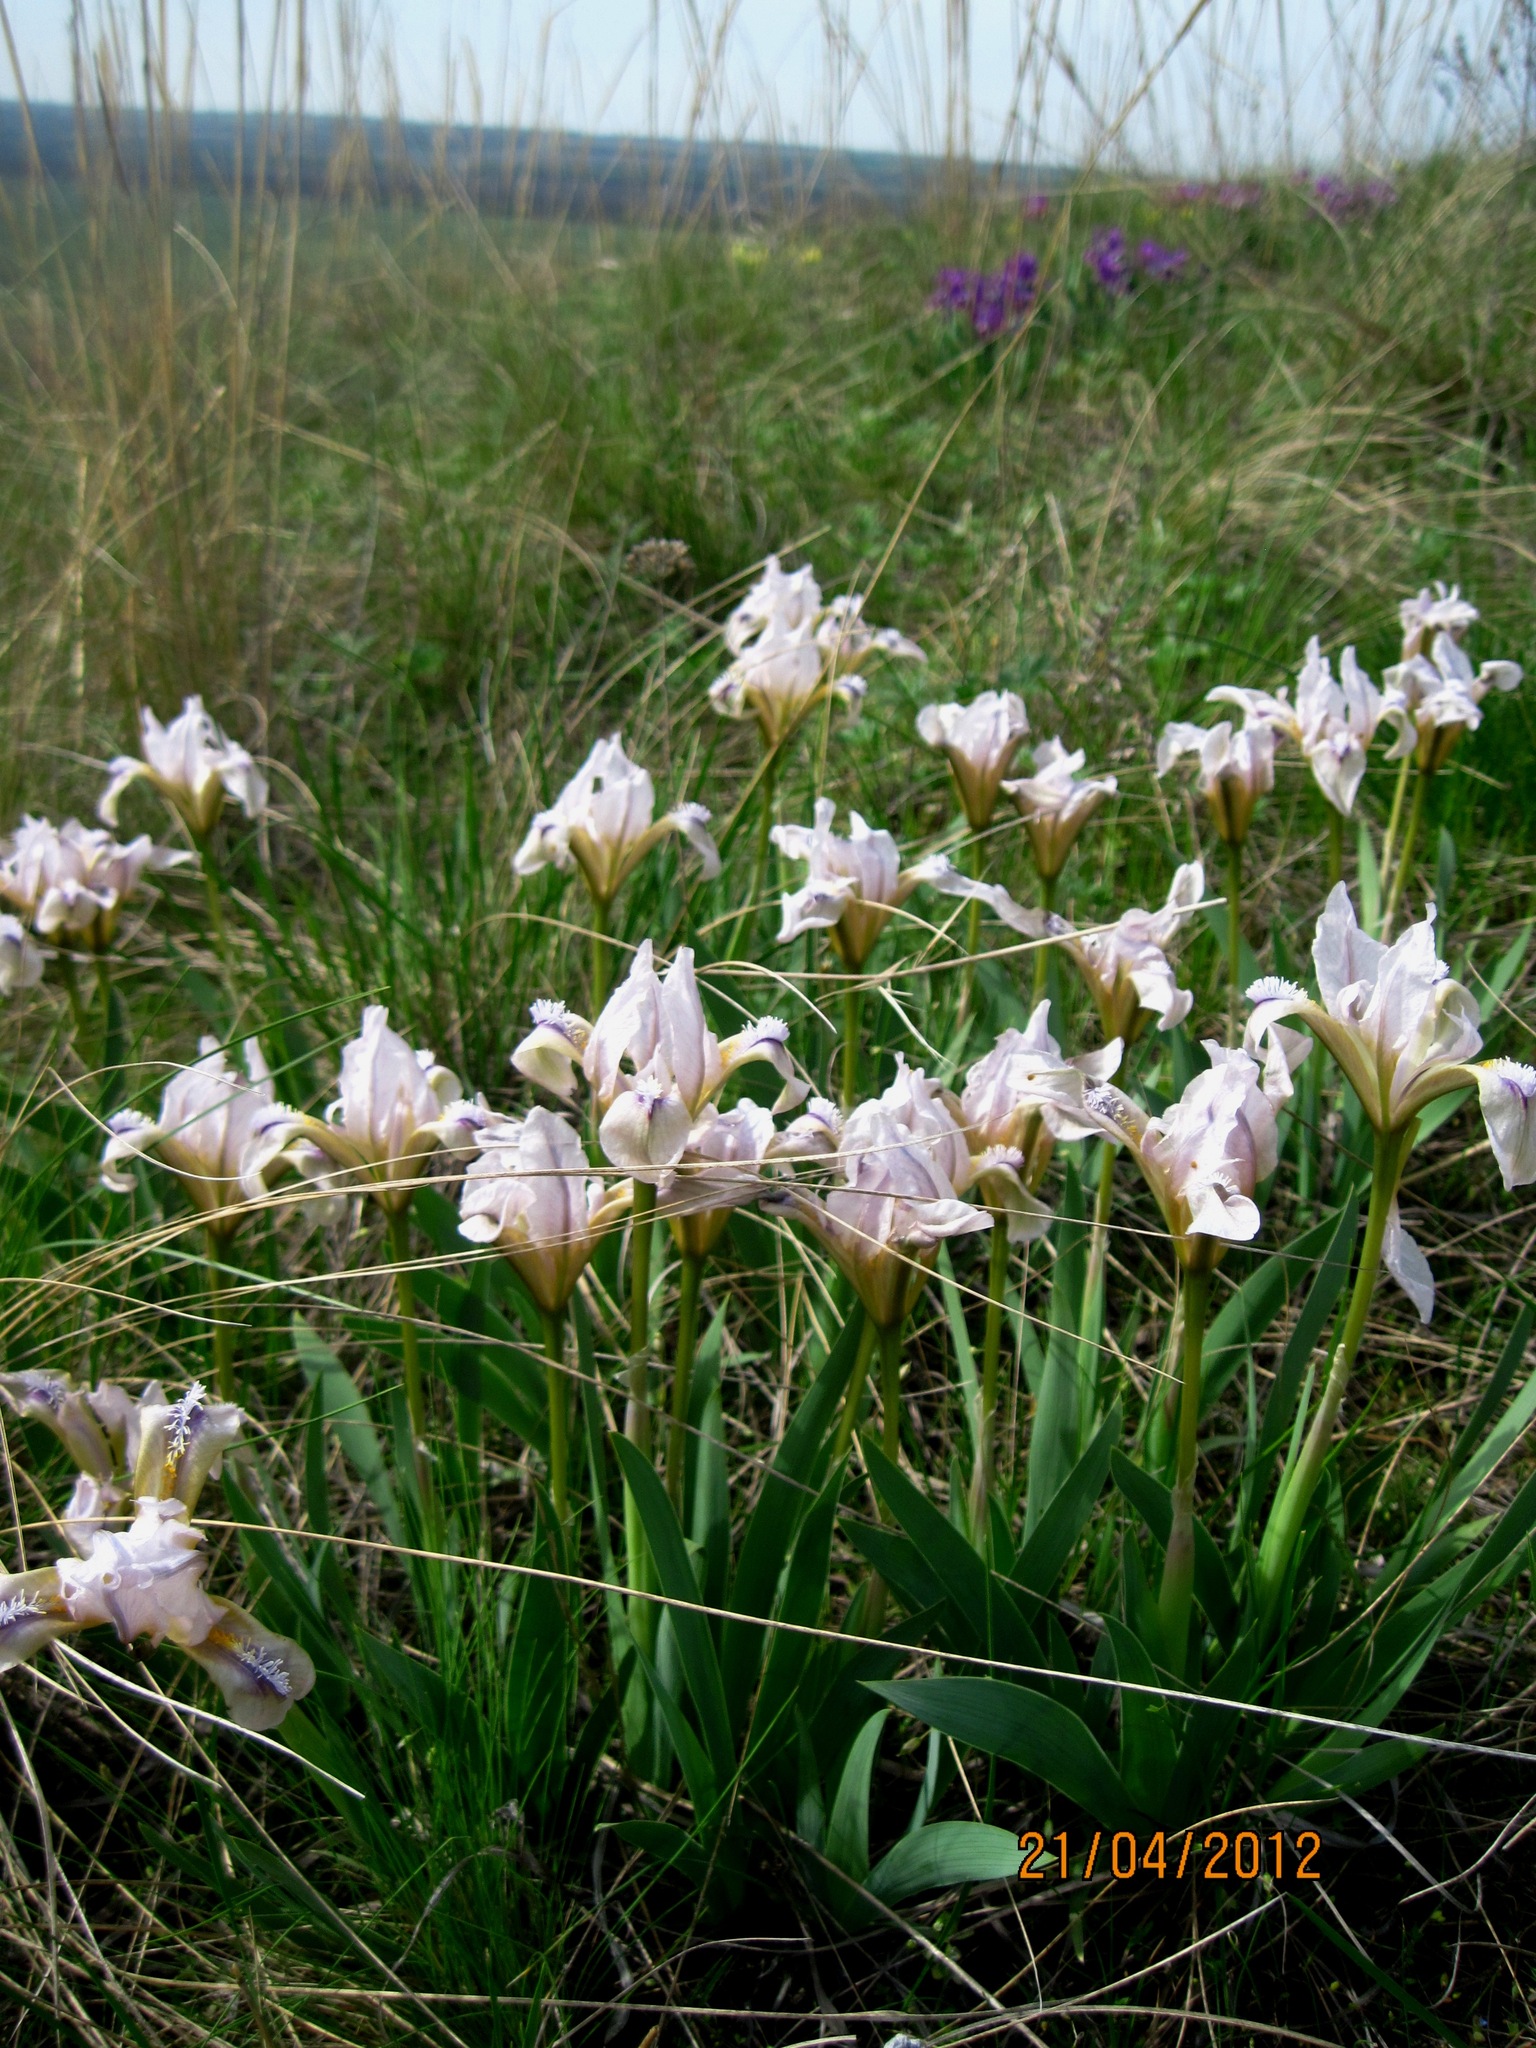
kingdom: Plantae
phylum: Tracheophyta
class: Liliopsida
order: Asparagales
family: Iridaceae
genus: Iris
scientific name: Iris pumila
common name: Dwarf iris
